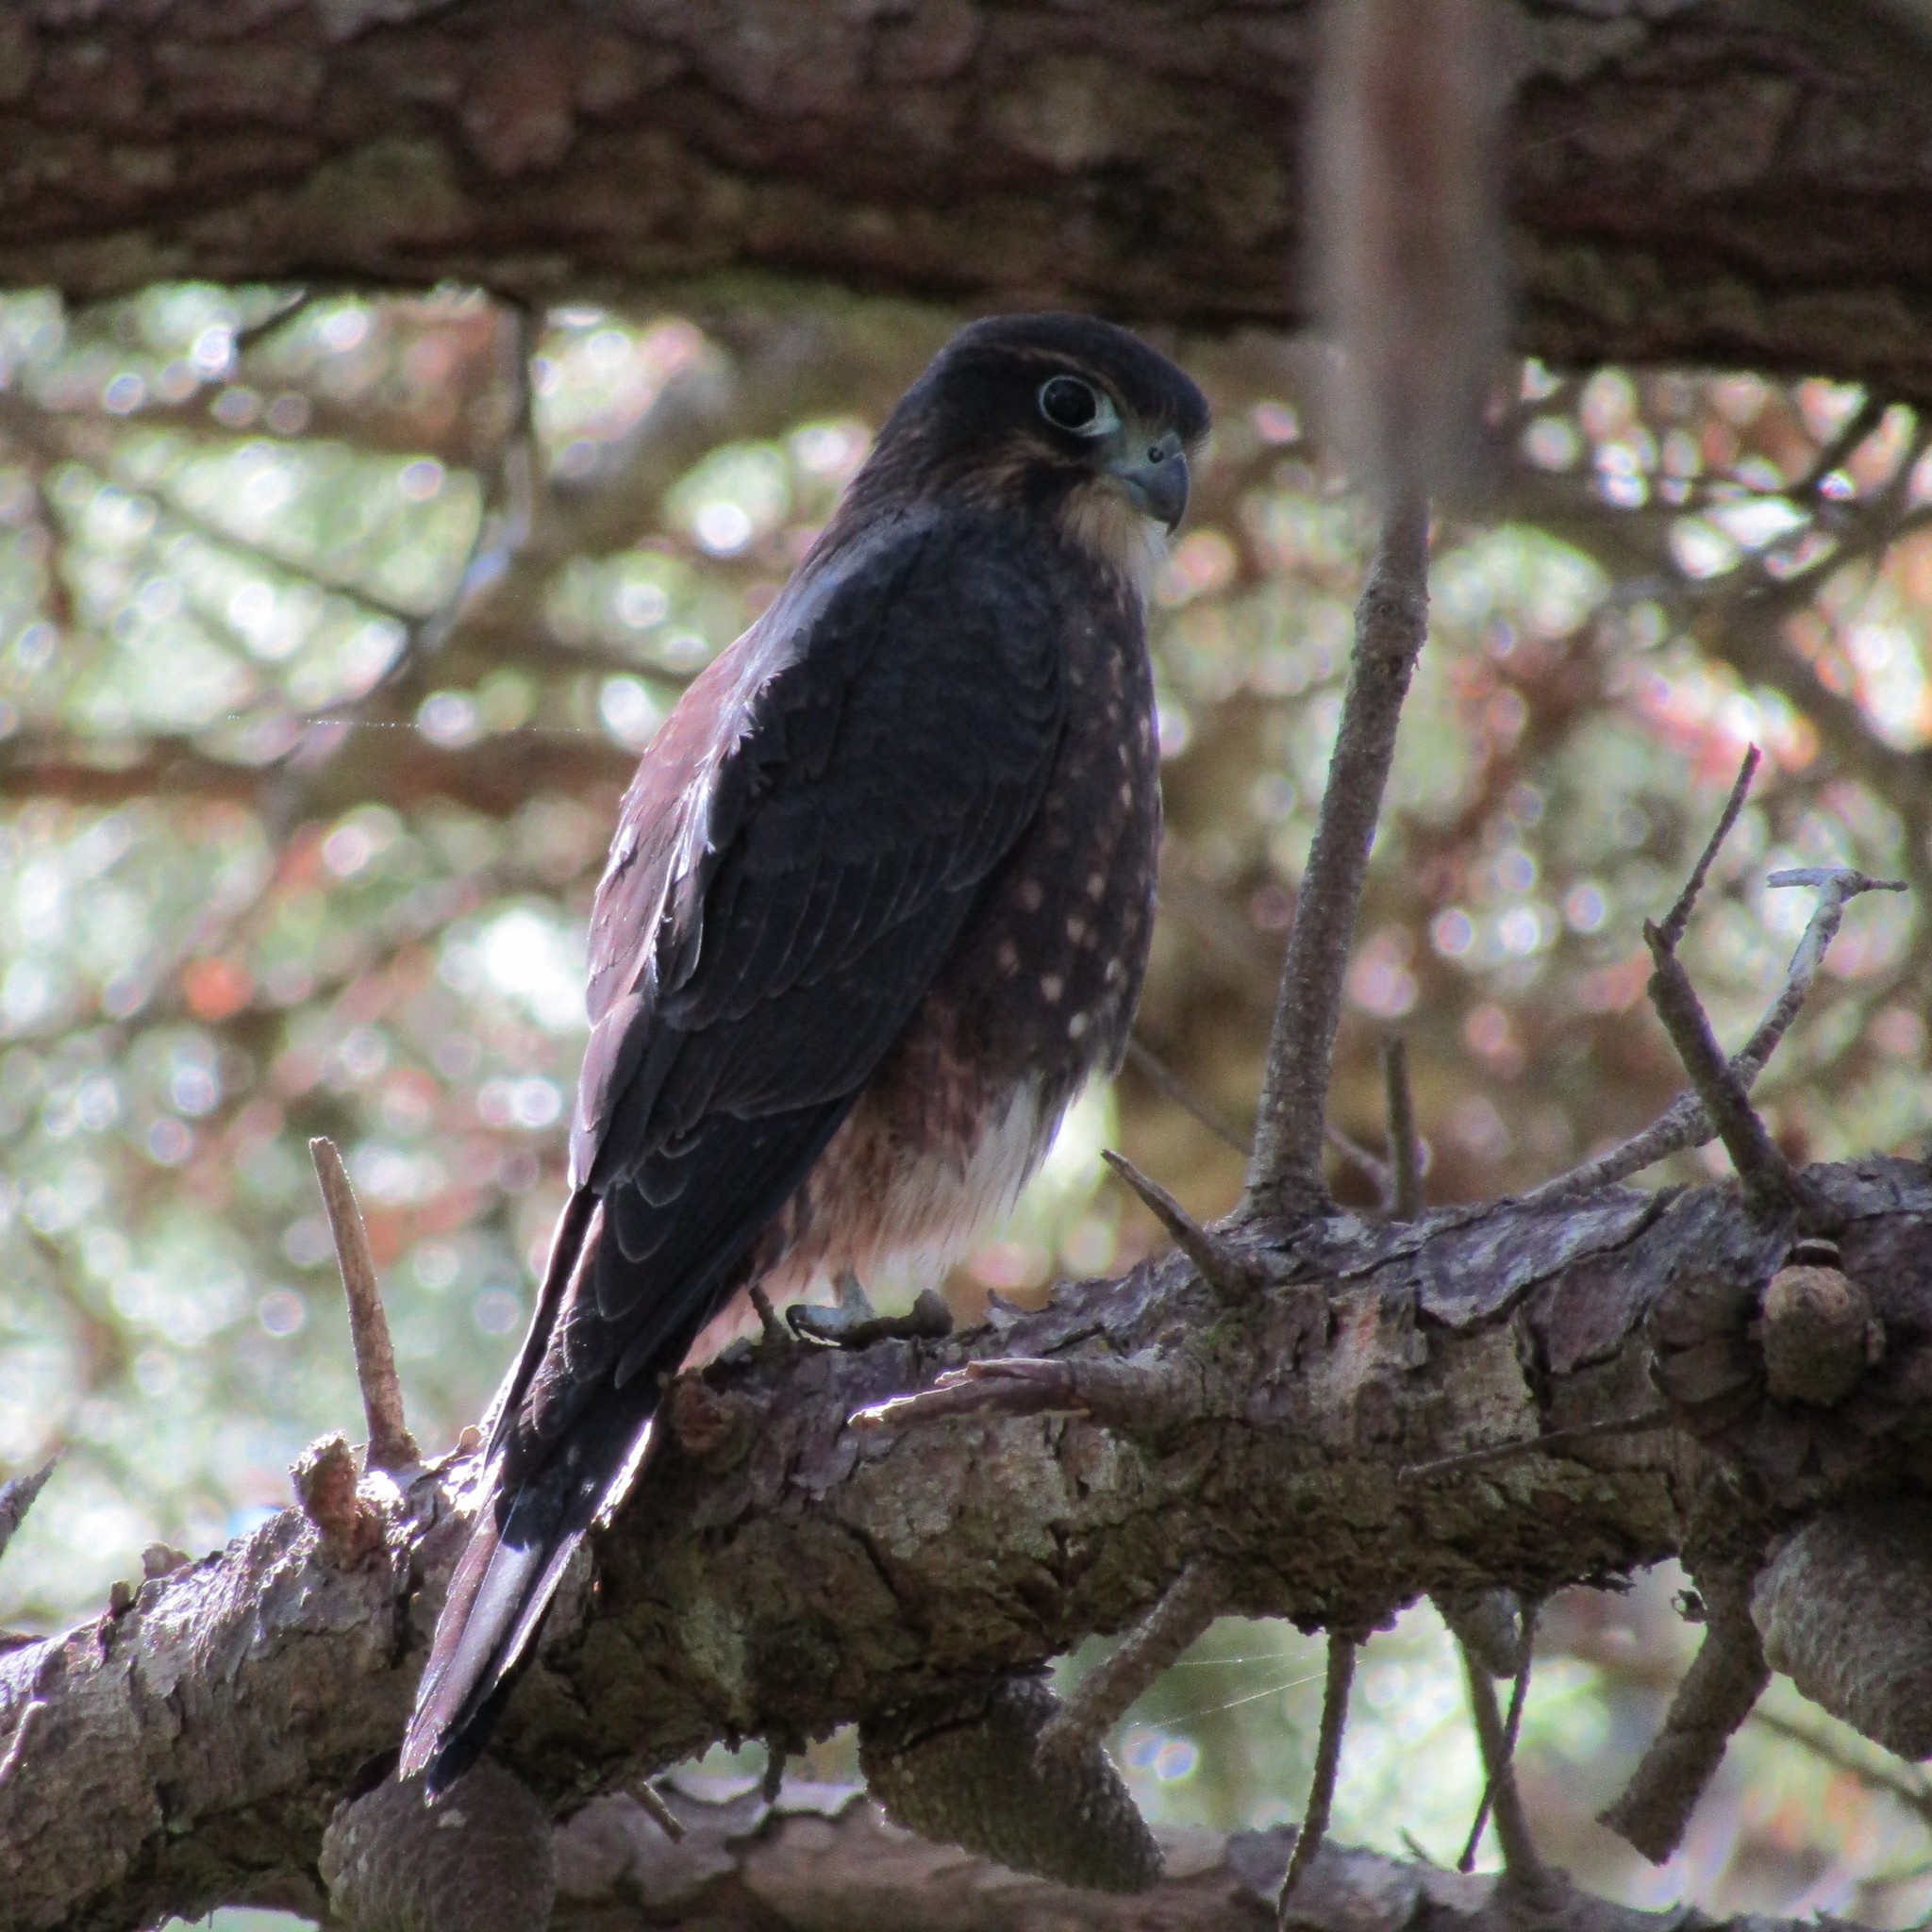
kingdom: Animalia
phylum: Chordata
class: Aves
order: Falconiformes
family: Falconidae
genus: Falco
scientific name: Falco novaeseelandiae
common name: New zealand falcon
